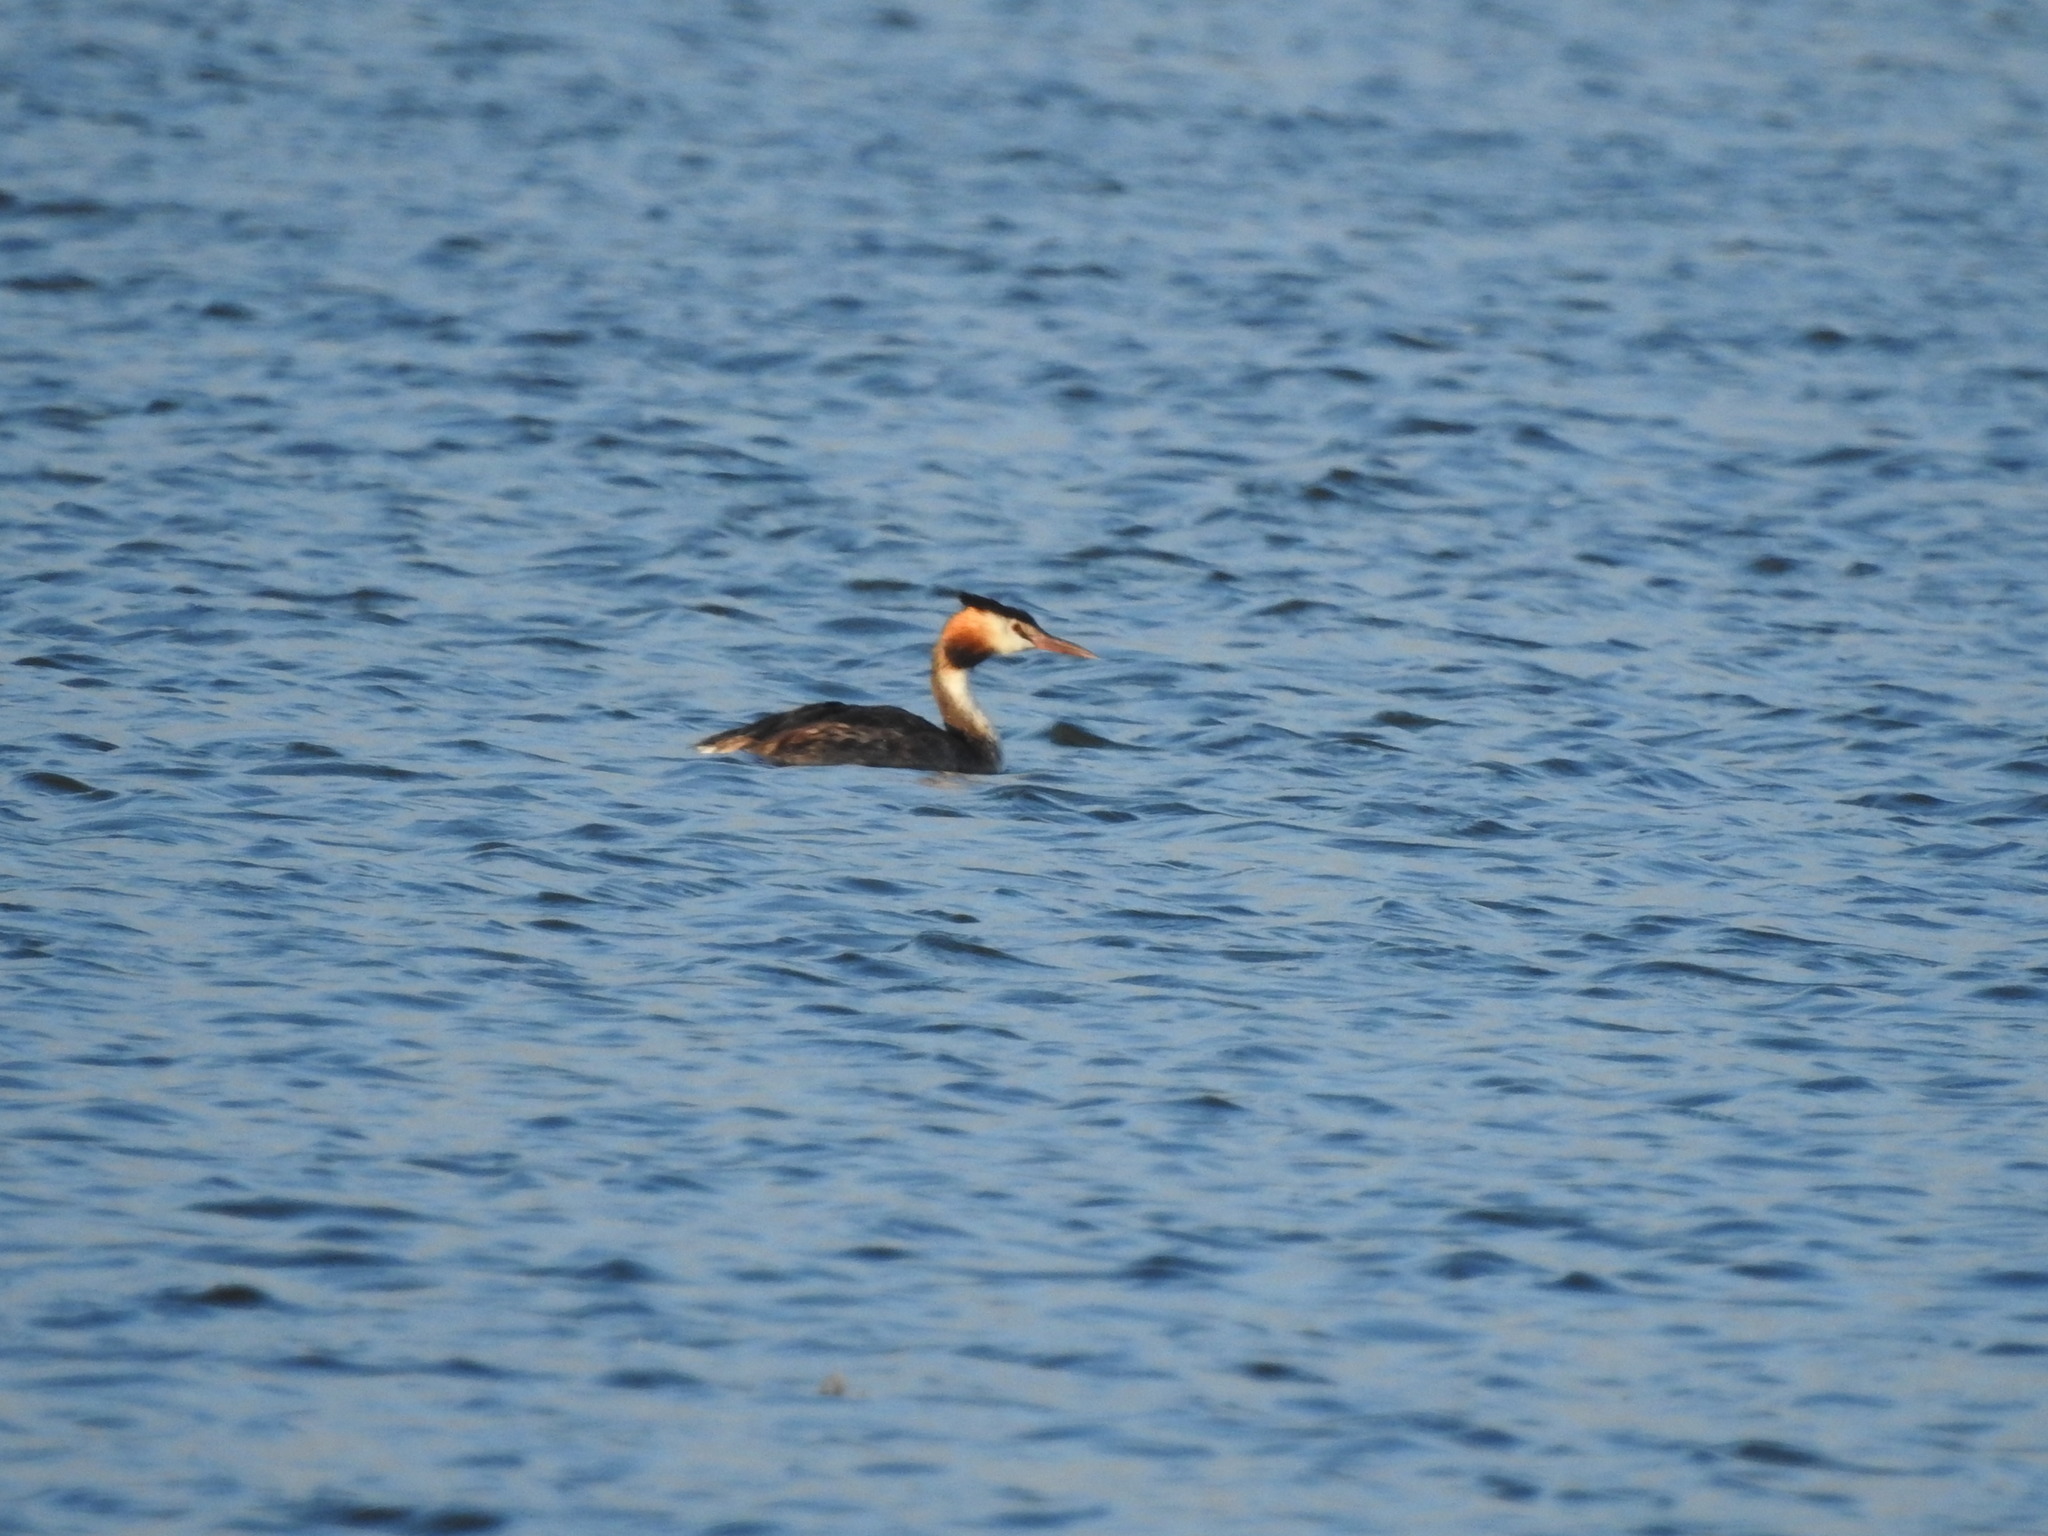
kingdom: Animalia
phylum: Chordata
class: Aves
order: Podicipediformes
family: Podicipedidae
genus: Podiceps
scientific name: Podiceps cristatus
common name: Great crested grebe
